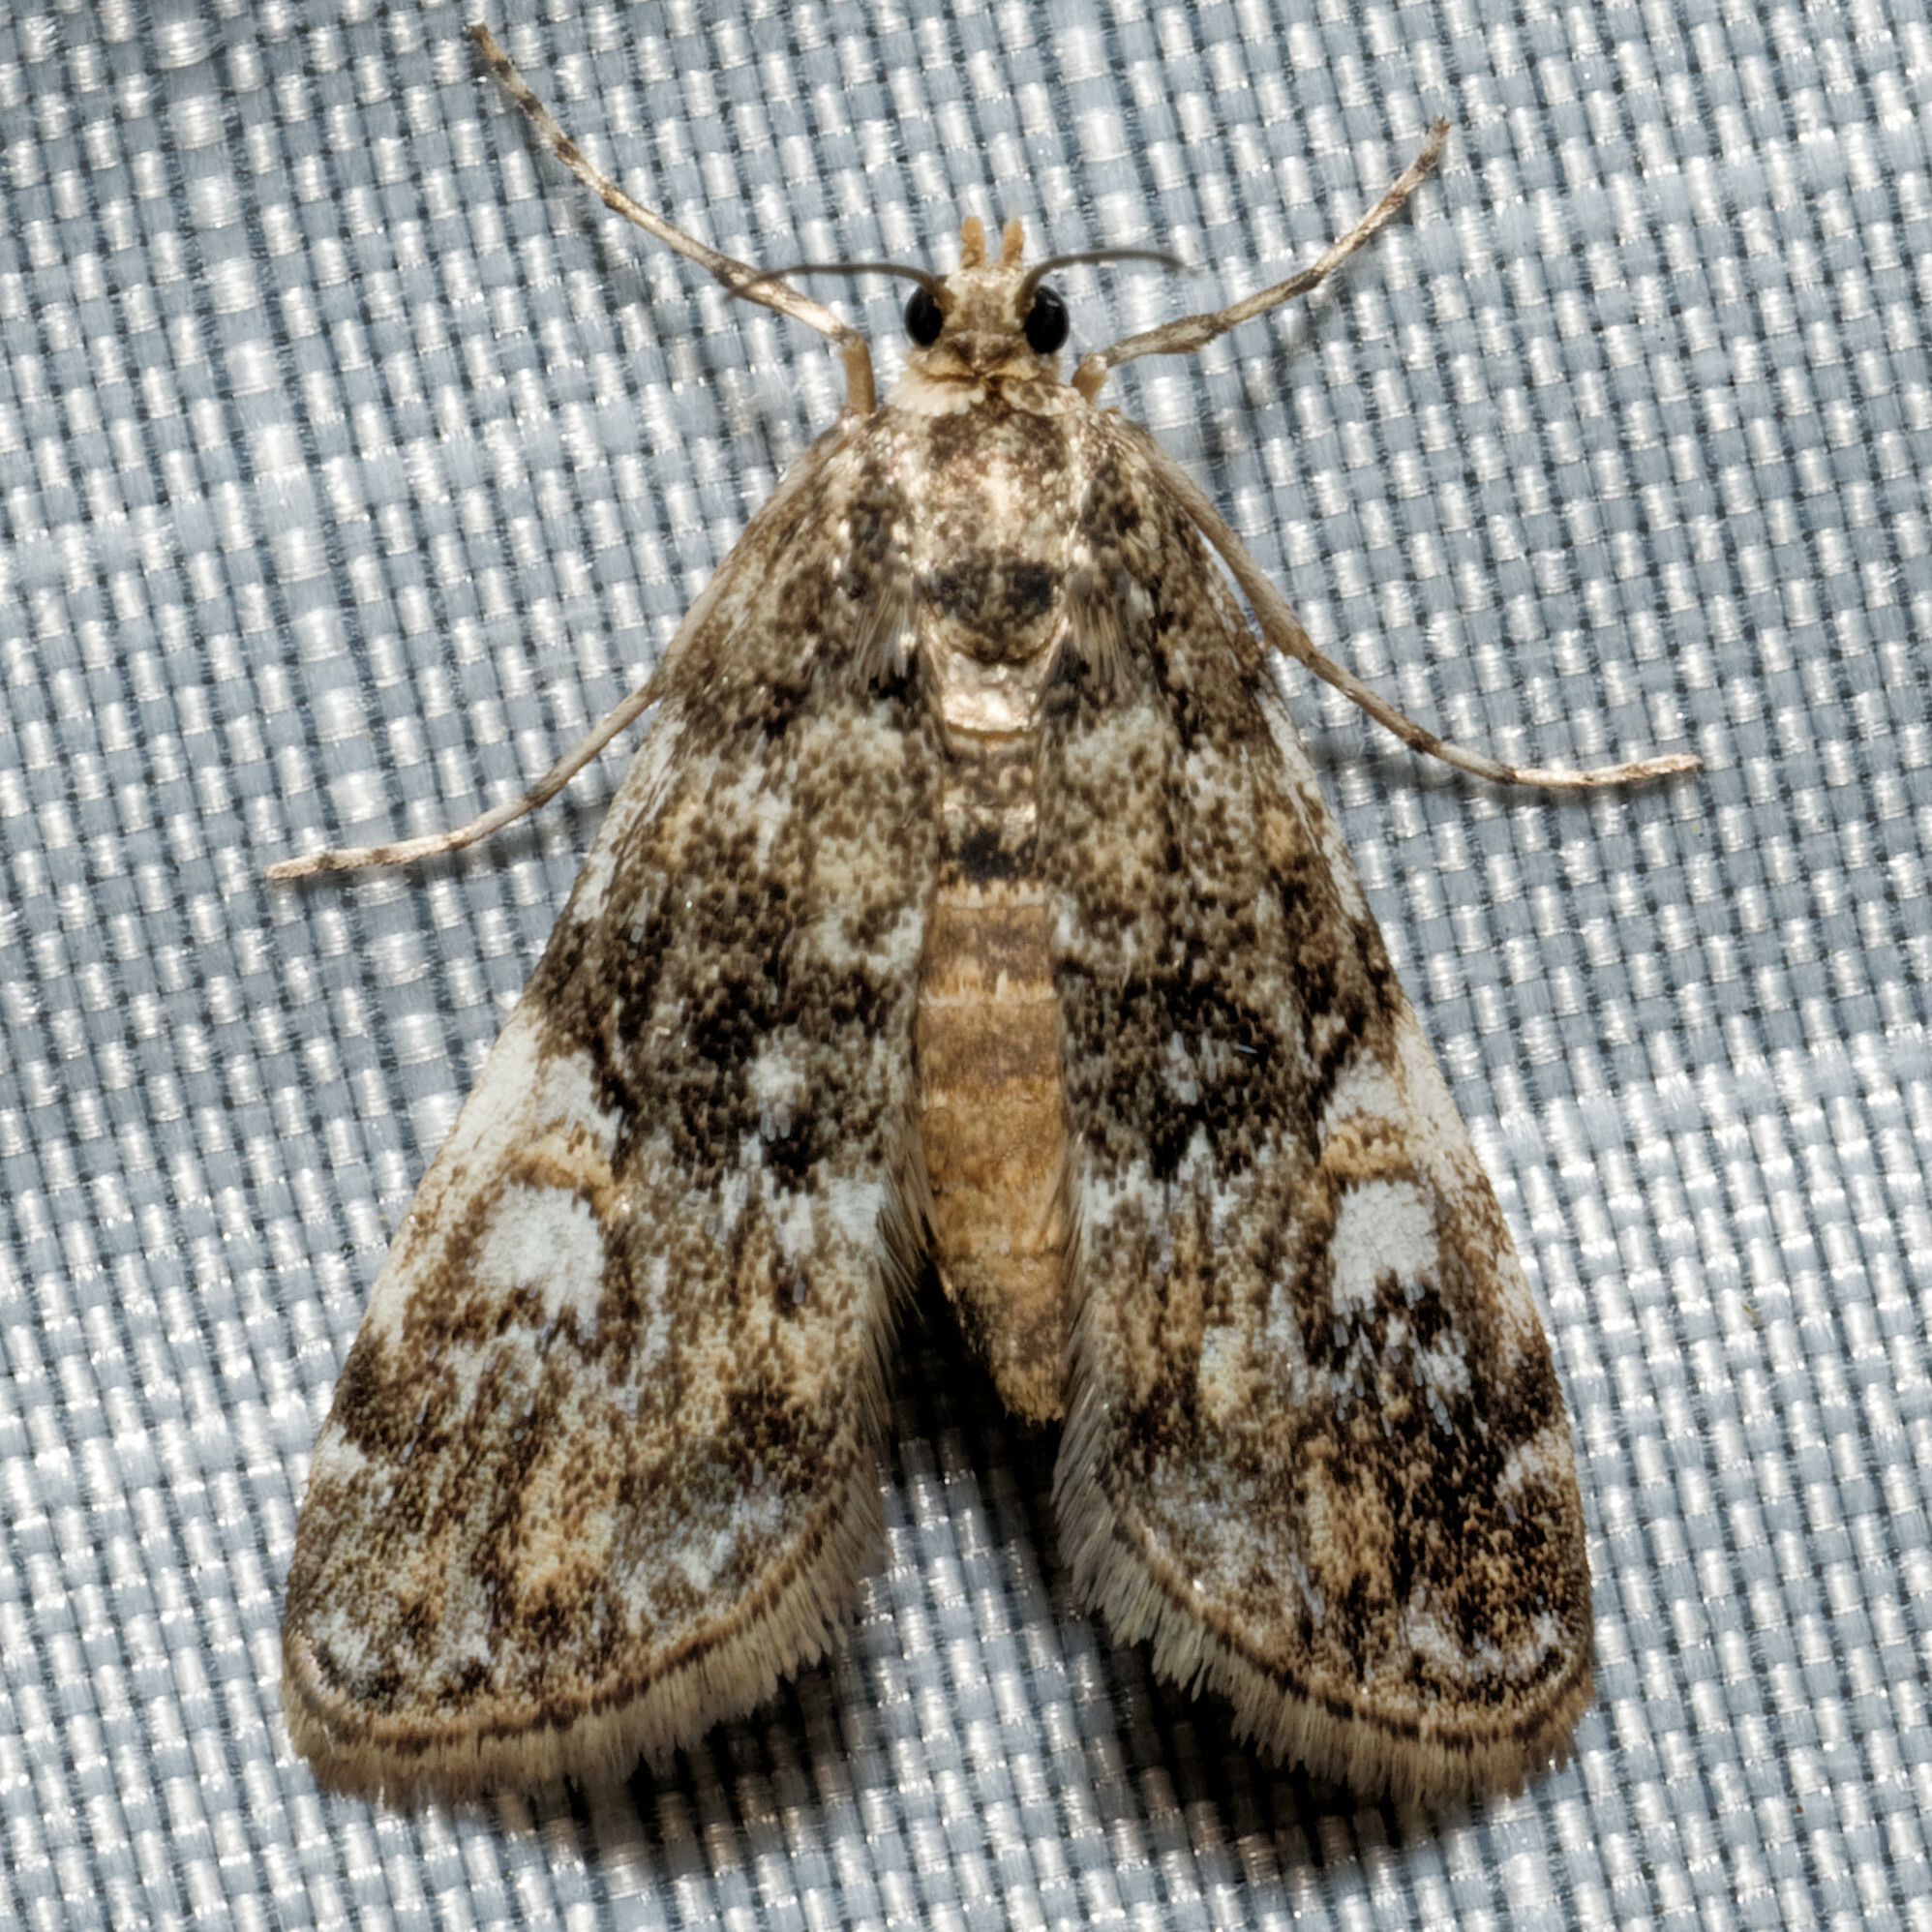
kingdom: Animalia
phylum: Arthropoda
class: Insecta
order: Lepidoptera
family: Crambidae
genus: Elophila
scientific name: Elophila obliteralis
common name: Waterlily leafcutter moth
